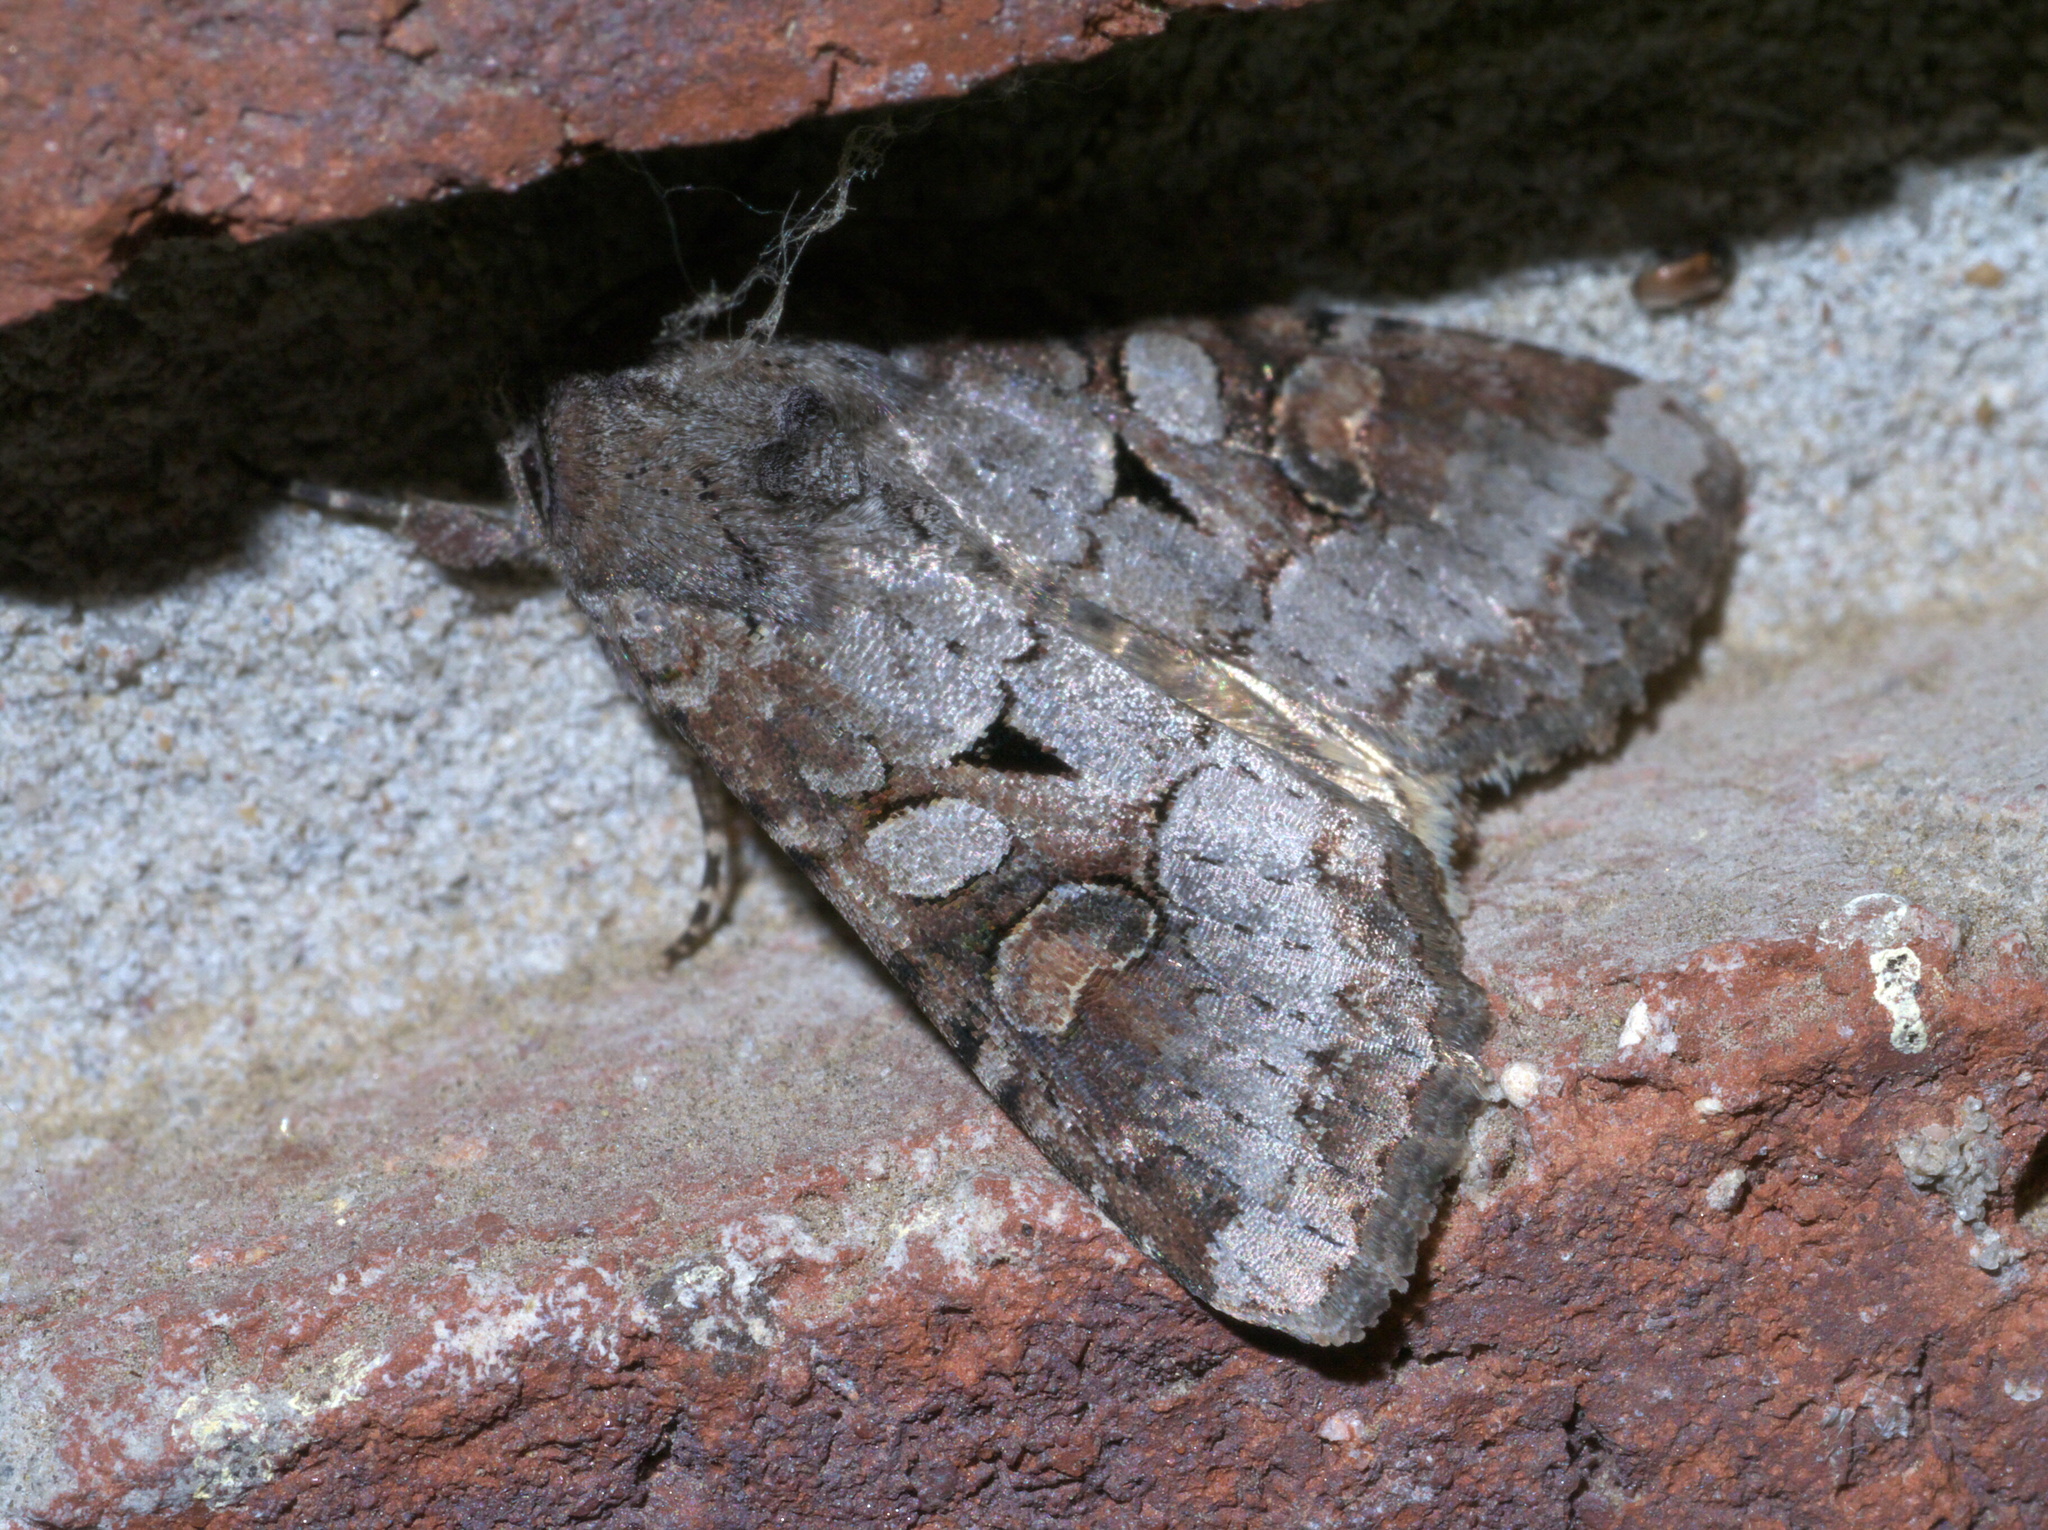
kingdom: Animalia
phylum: Arthropoda
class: Insecta
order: Lepidoptera
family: Noctuidae
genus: Trichordestra
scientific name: Trichordestra legitima
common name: Striped garden caterpillar
